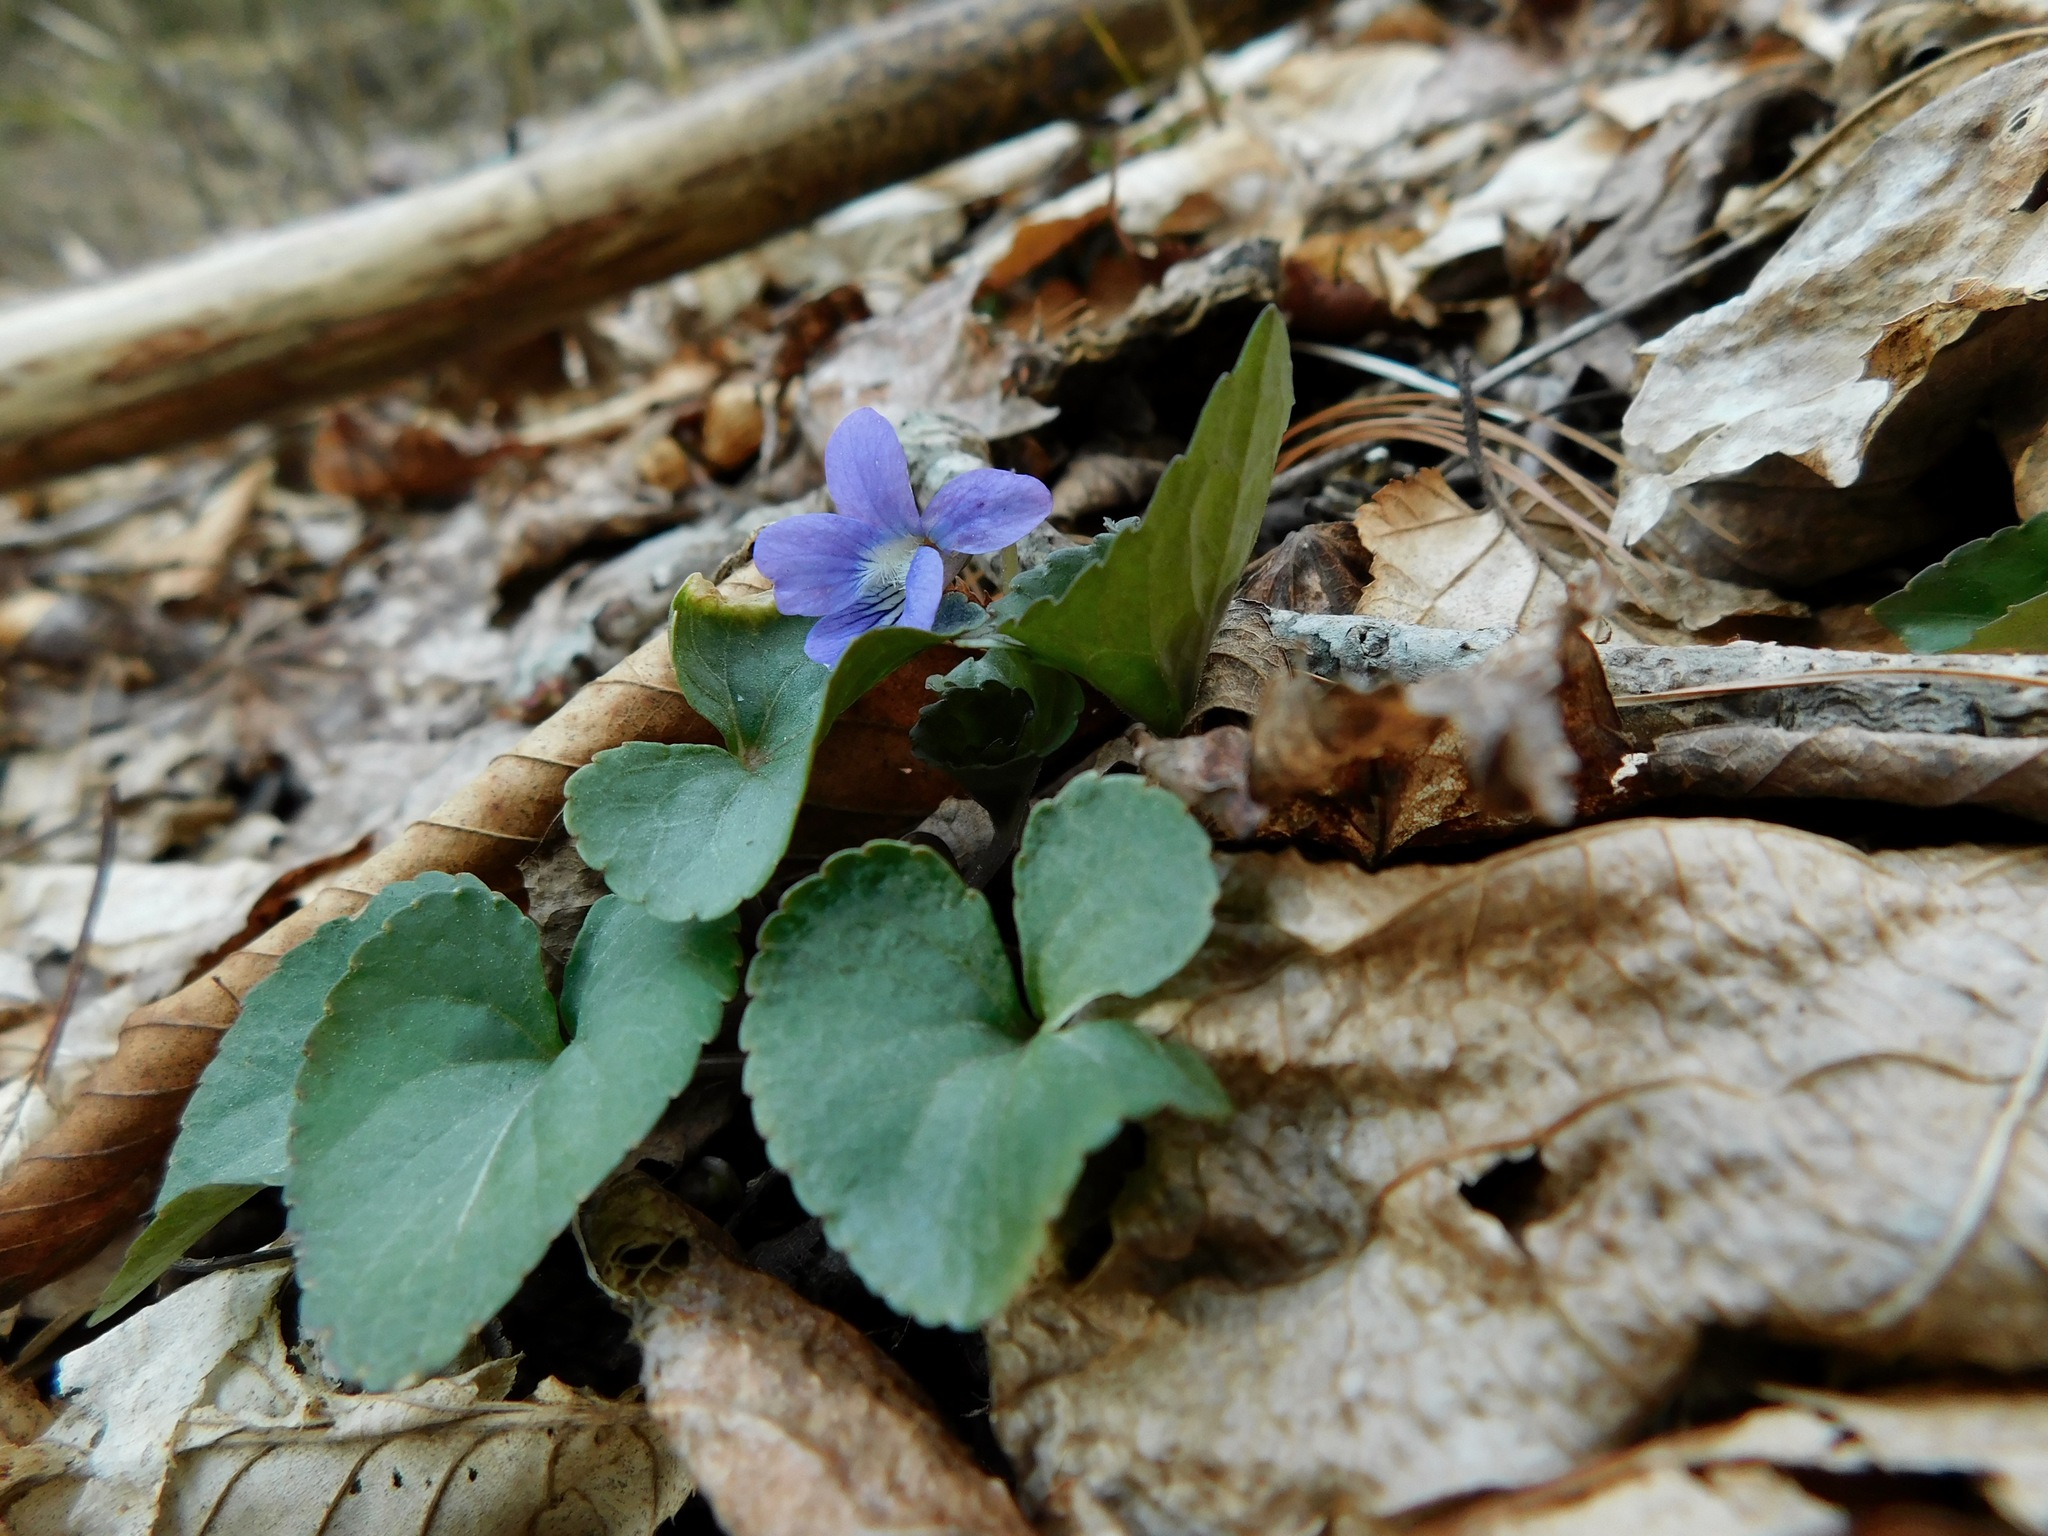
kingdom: Plantae
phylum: Tracheophyta
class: Magnoliopsida
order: Malpighiales
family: Violaceae
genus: Viola
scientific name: Viola cucullata
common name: Marsh blue violet
